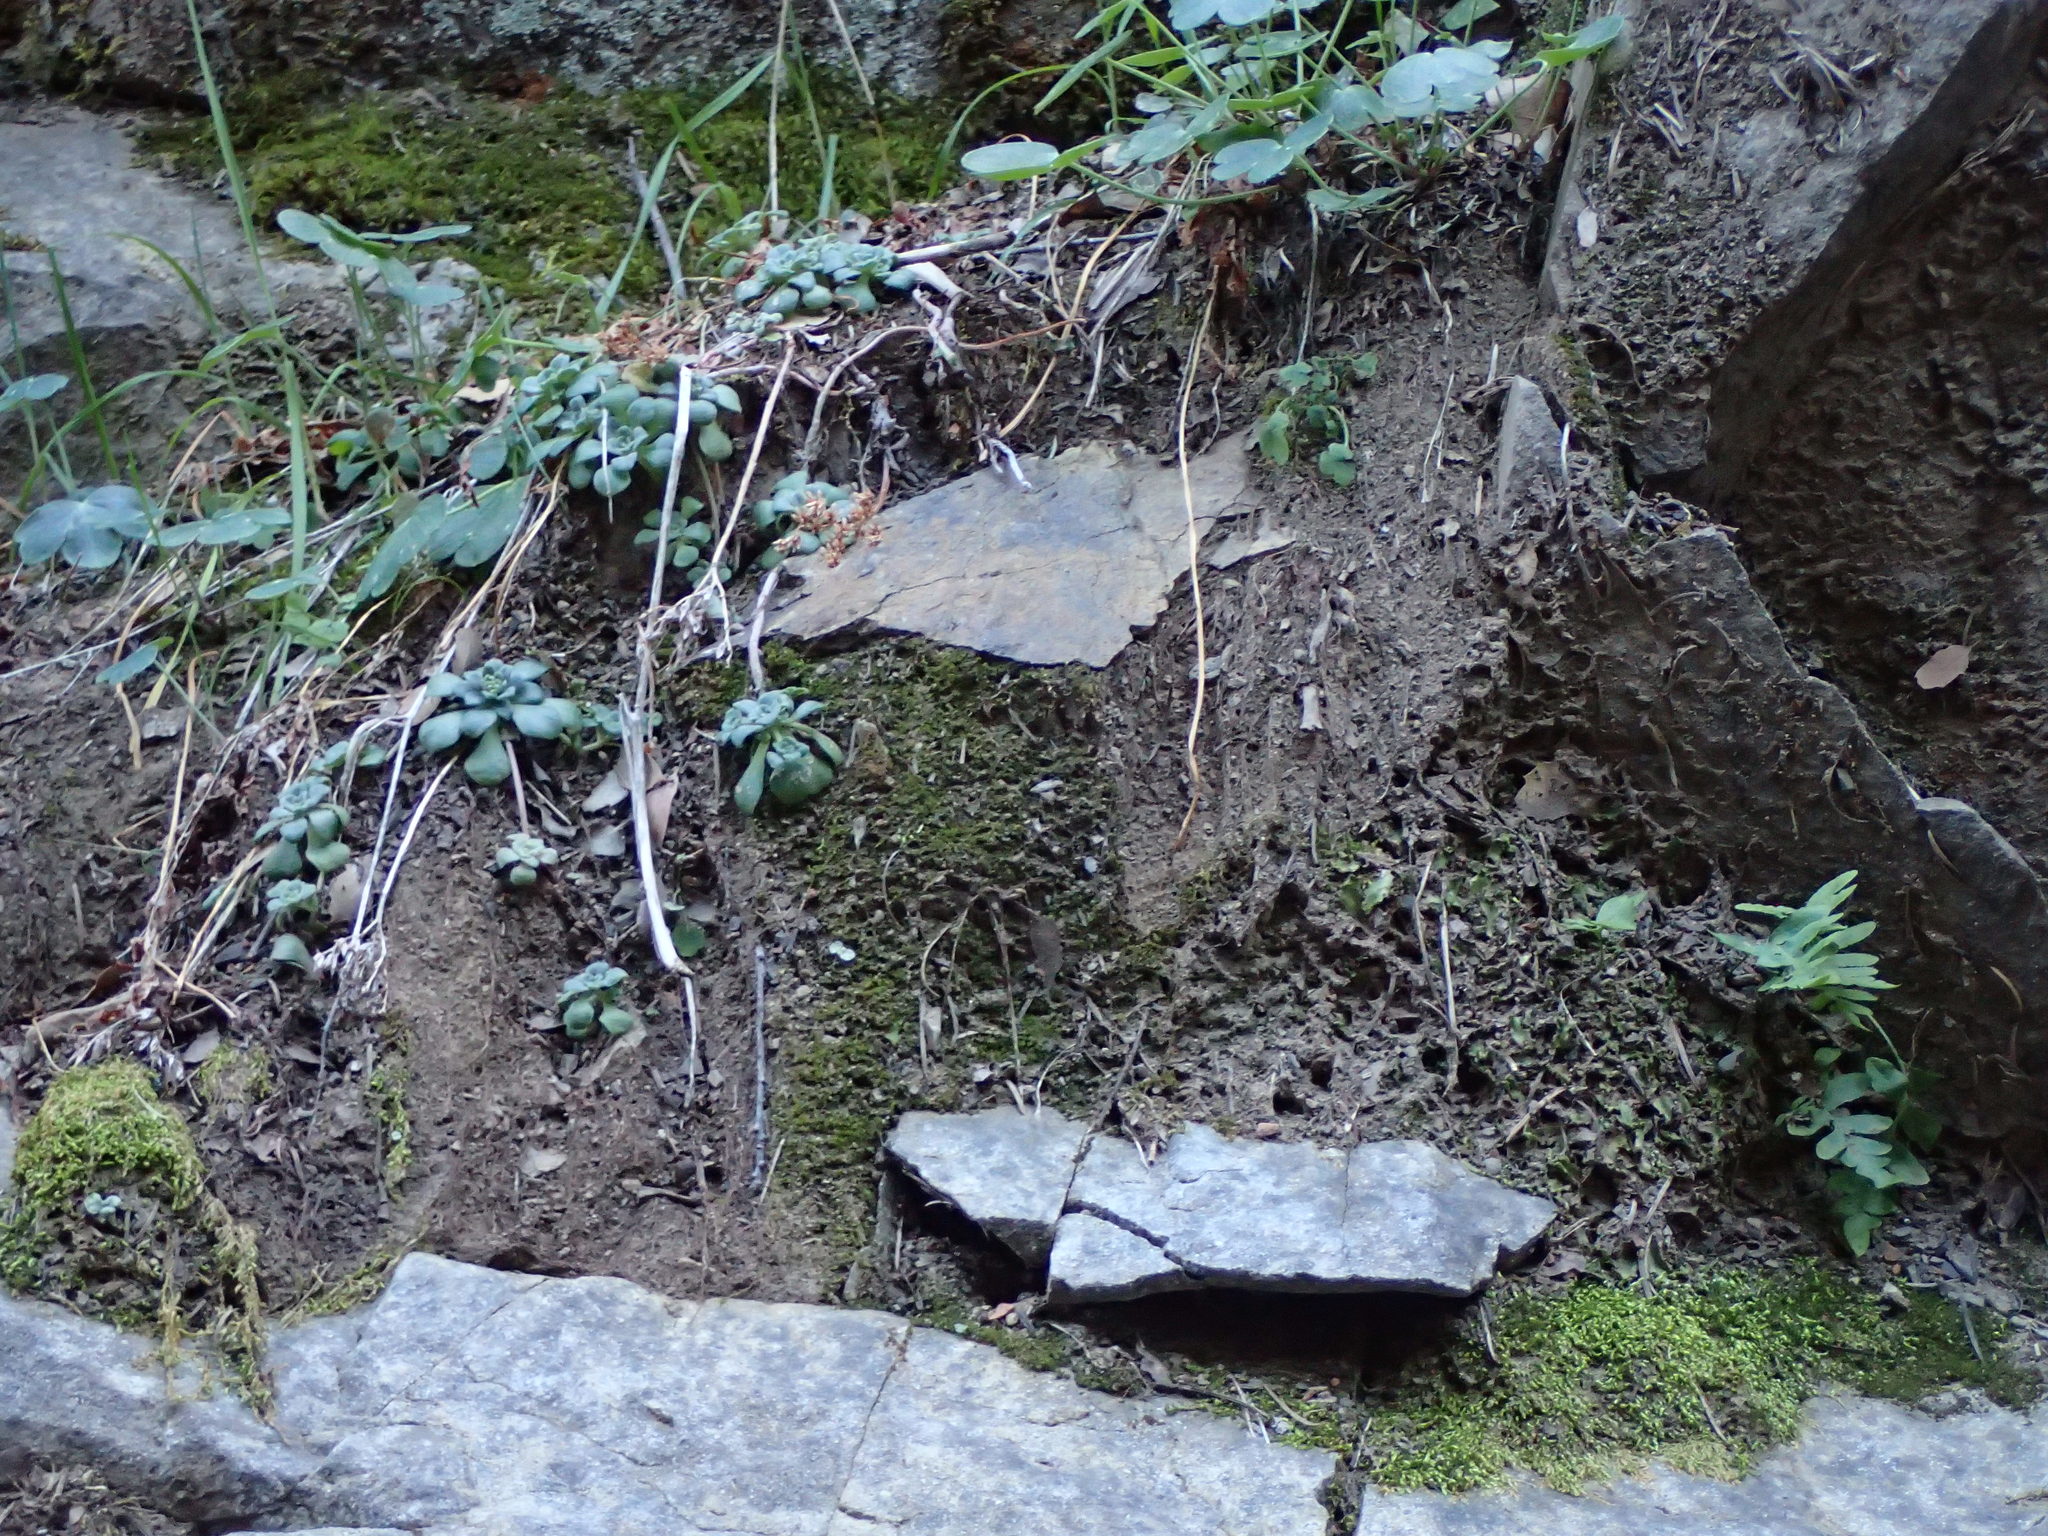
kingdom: Plantae
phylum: Tracheophyta
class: Magnoliopsida
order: Saxifragales
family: Crassulaceae
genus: Sedum
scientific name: Sedum spathulifolium
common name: Colorado stonecrop
